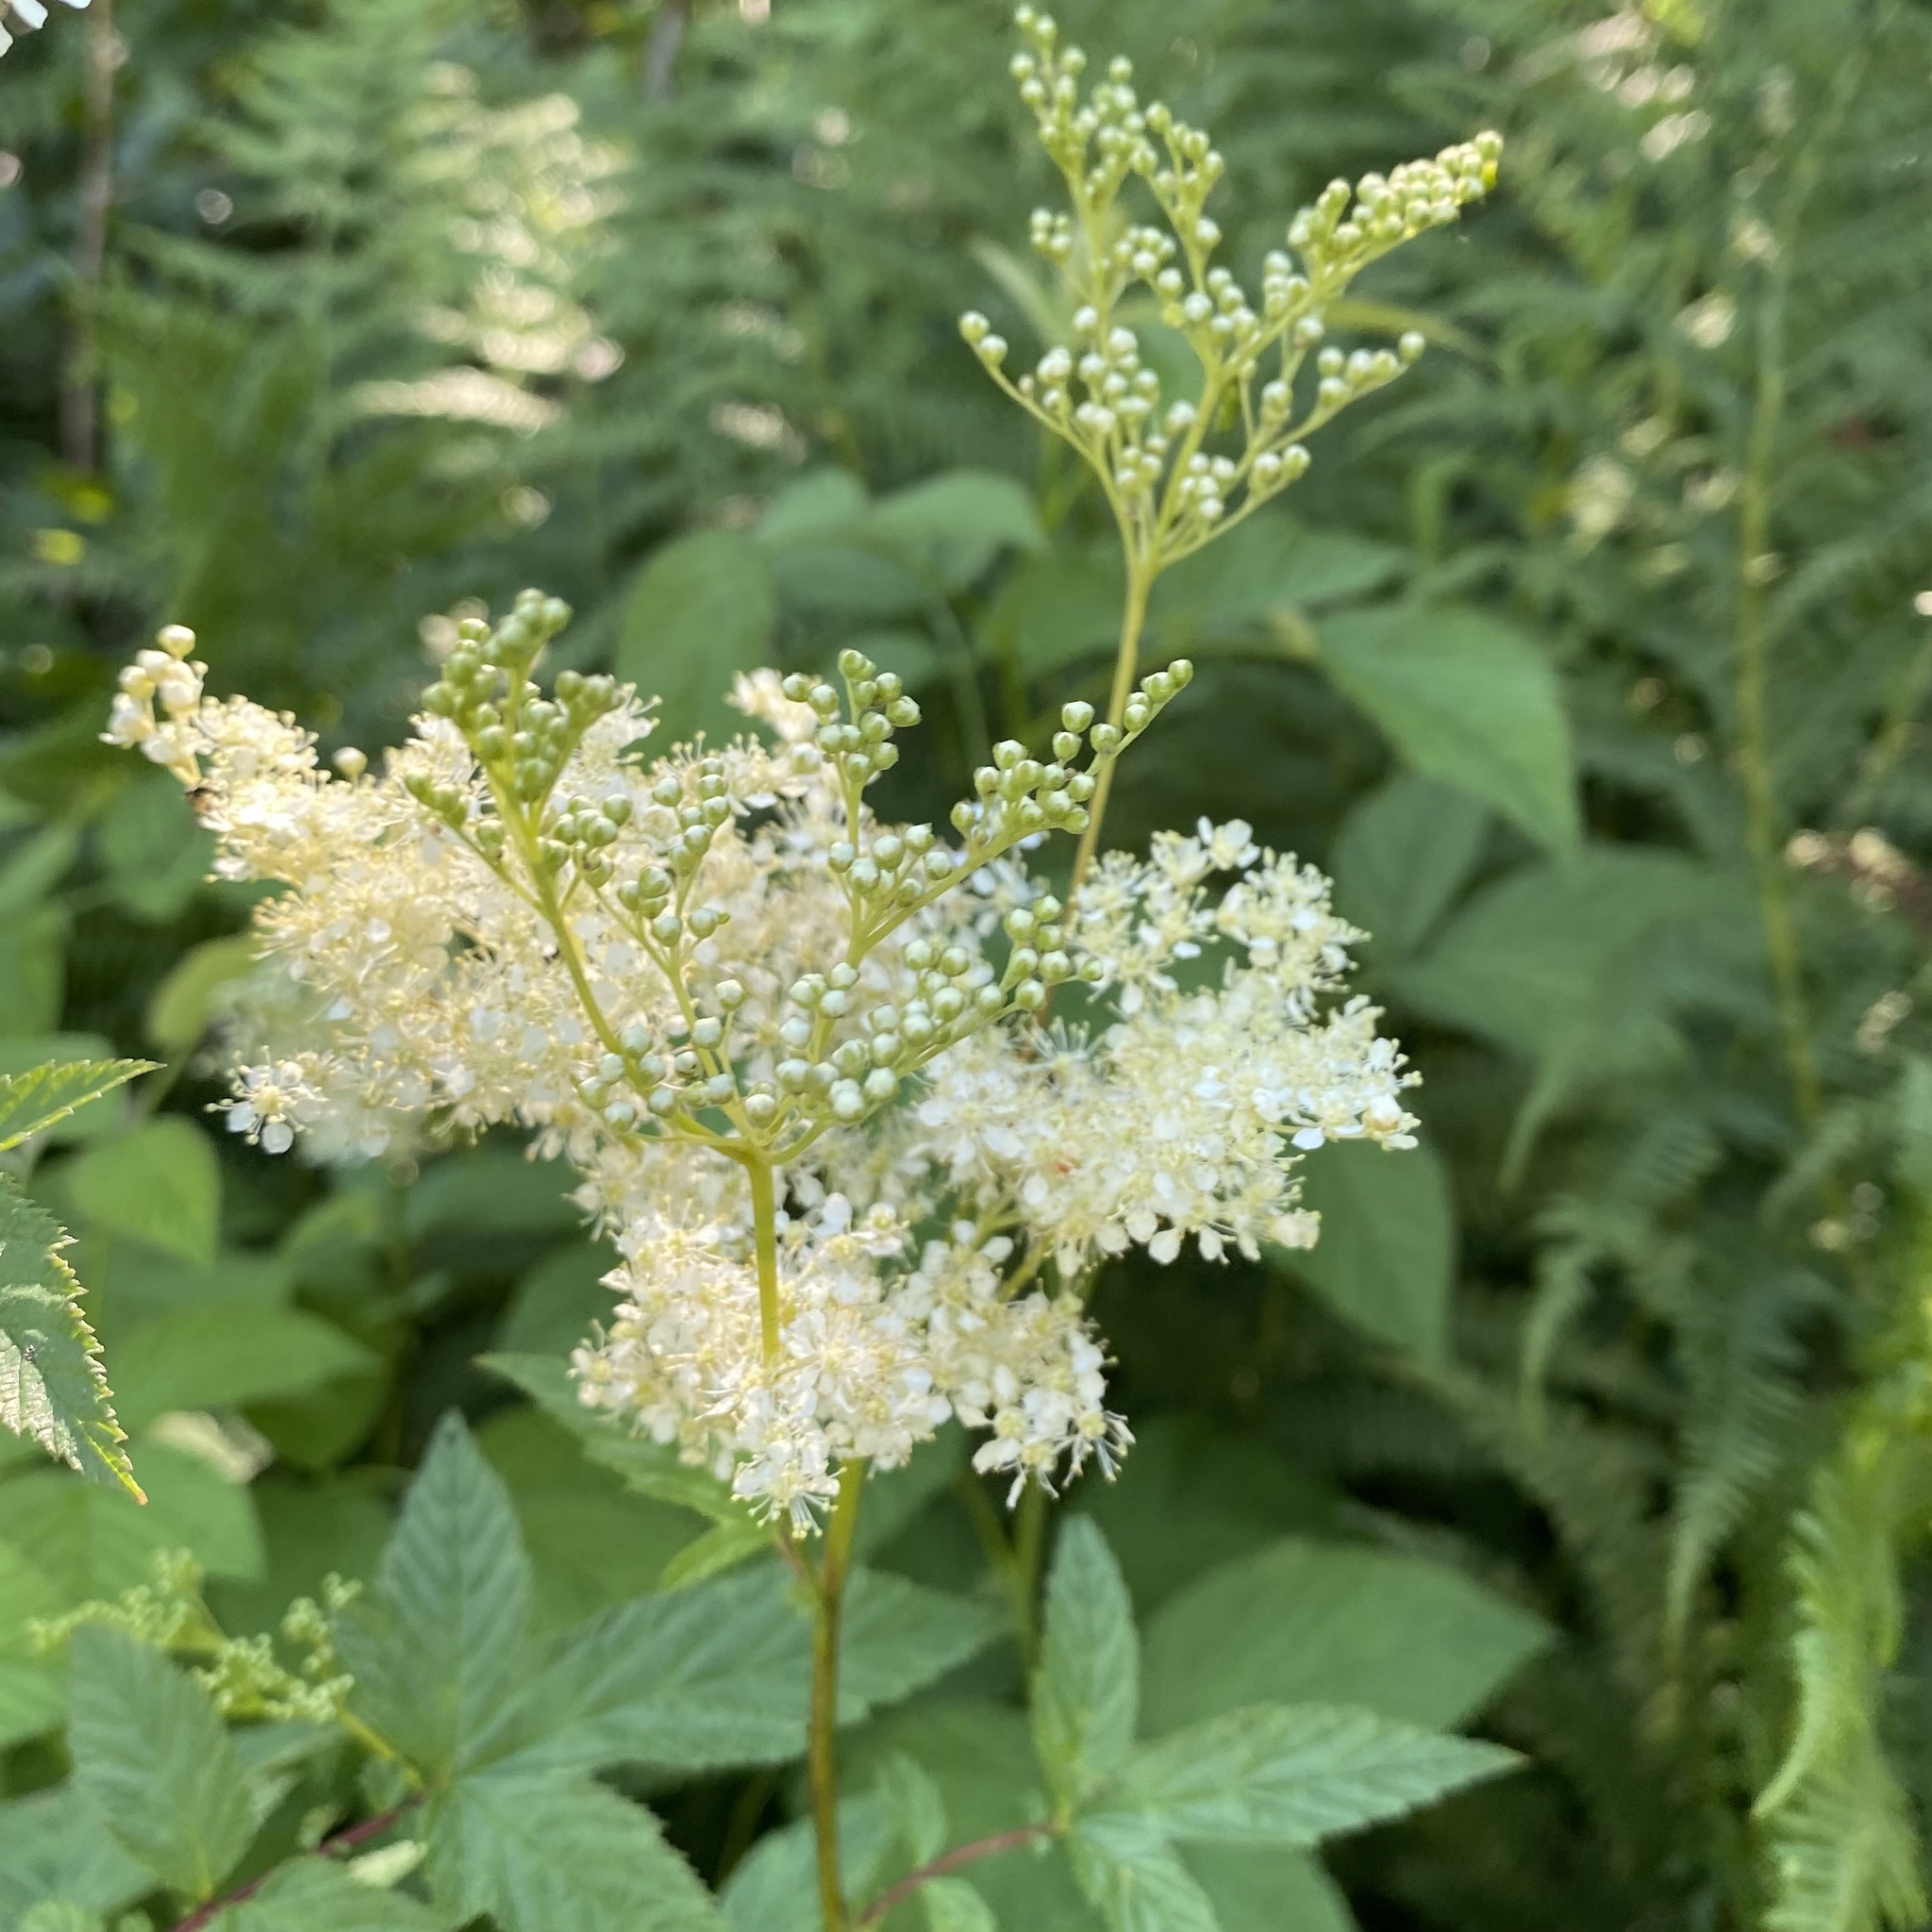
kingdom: Plantae
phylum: Tracheophyta
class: Magnoliopsida
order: Rosales
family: Rosaceae
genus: Filipendula
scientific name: Filipendula ulmaria
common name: Meadowsweet
